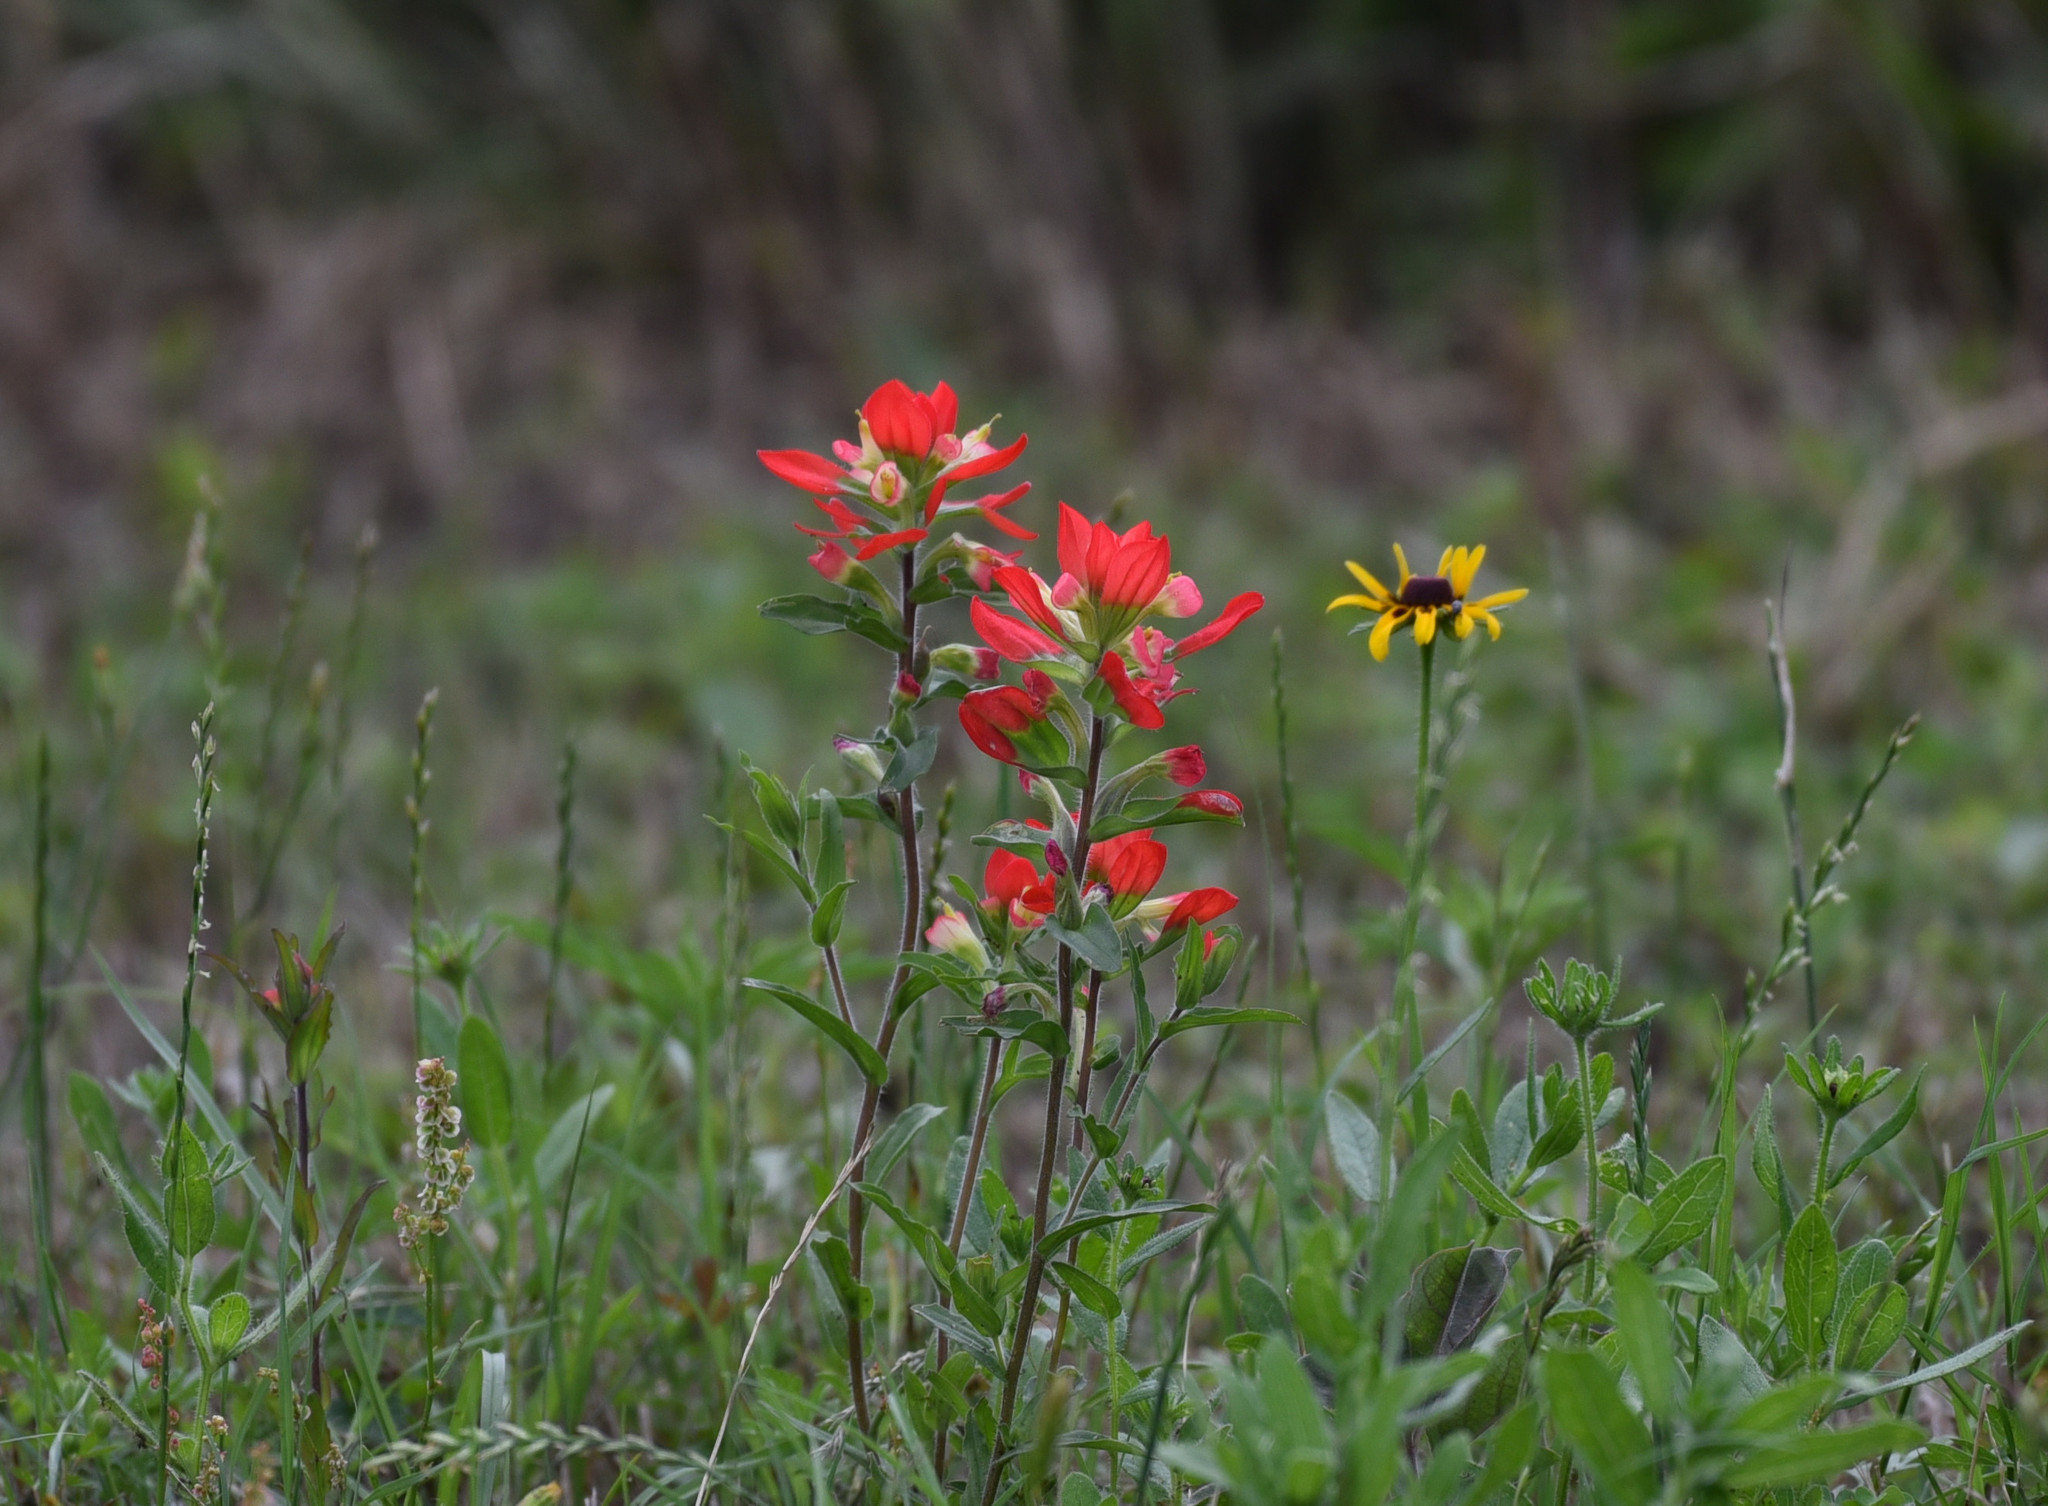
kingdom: Plantae
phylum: Tracheophyta
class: Magnoliopsida
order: Lamiales
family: Orobanchaceae
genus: Castilleja
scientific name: Castilleja indivisa
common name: Texas paintbrush
